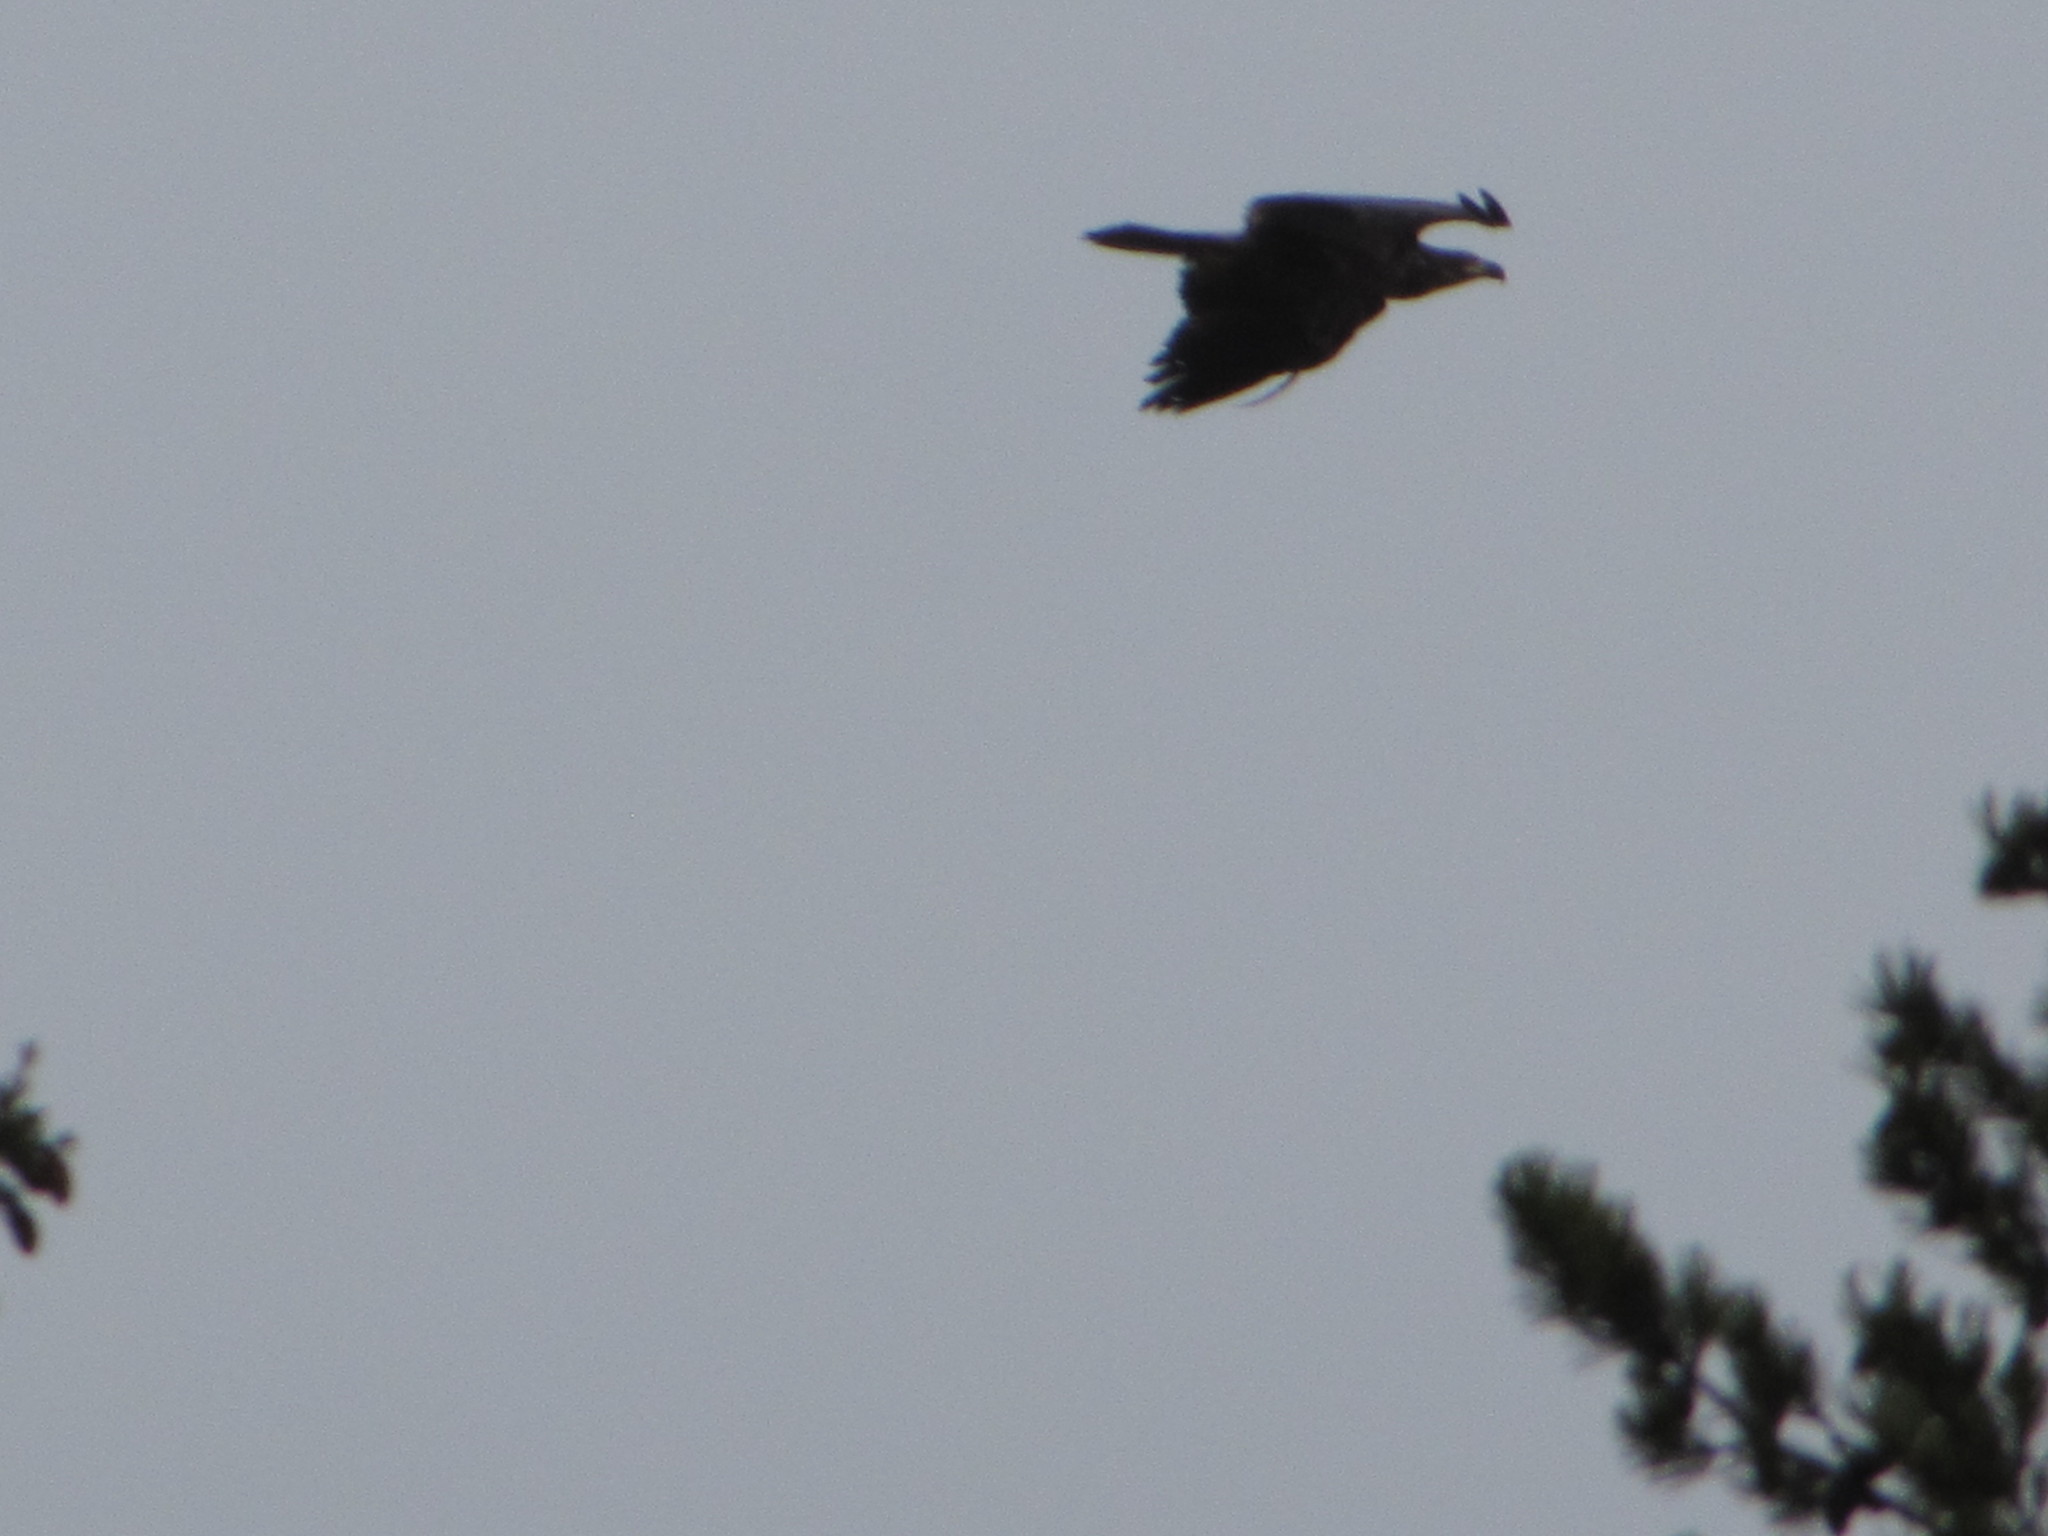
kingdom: Animalia
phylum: Chordata
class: Aves
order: Accipitriformes
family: Accipitridae
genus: Haliaeetus
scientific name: Haliaeetus leucocephalus
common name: Bald eagle
